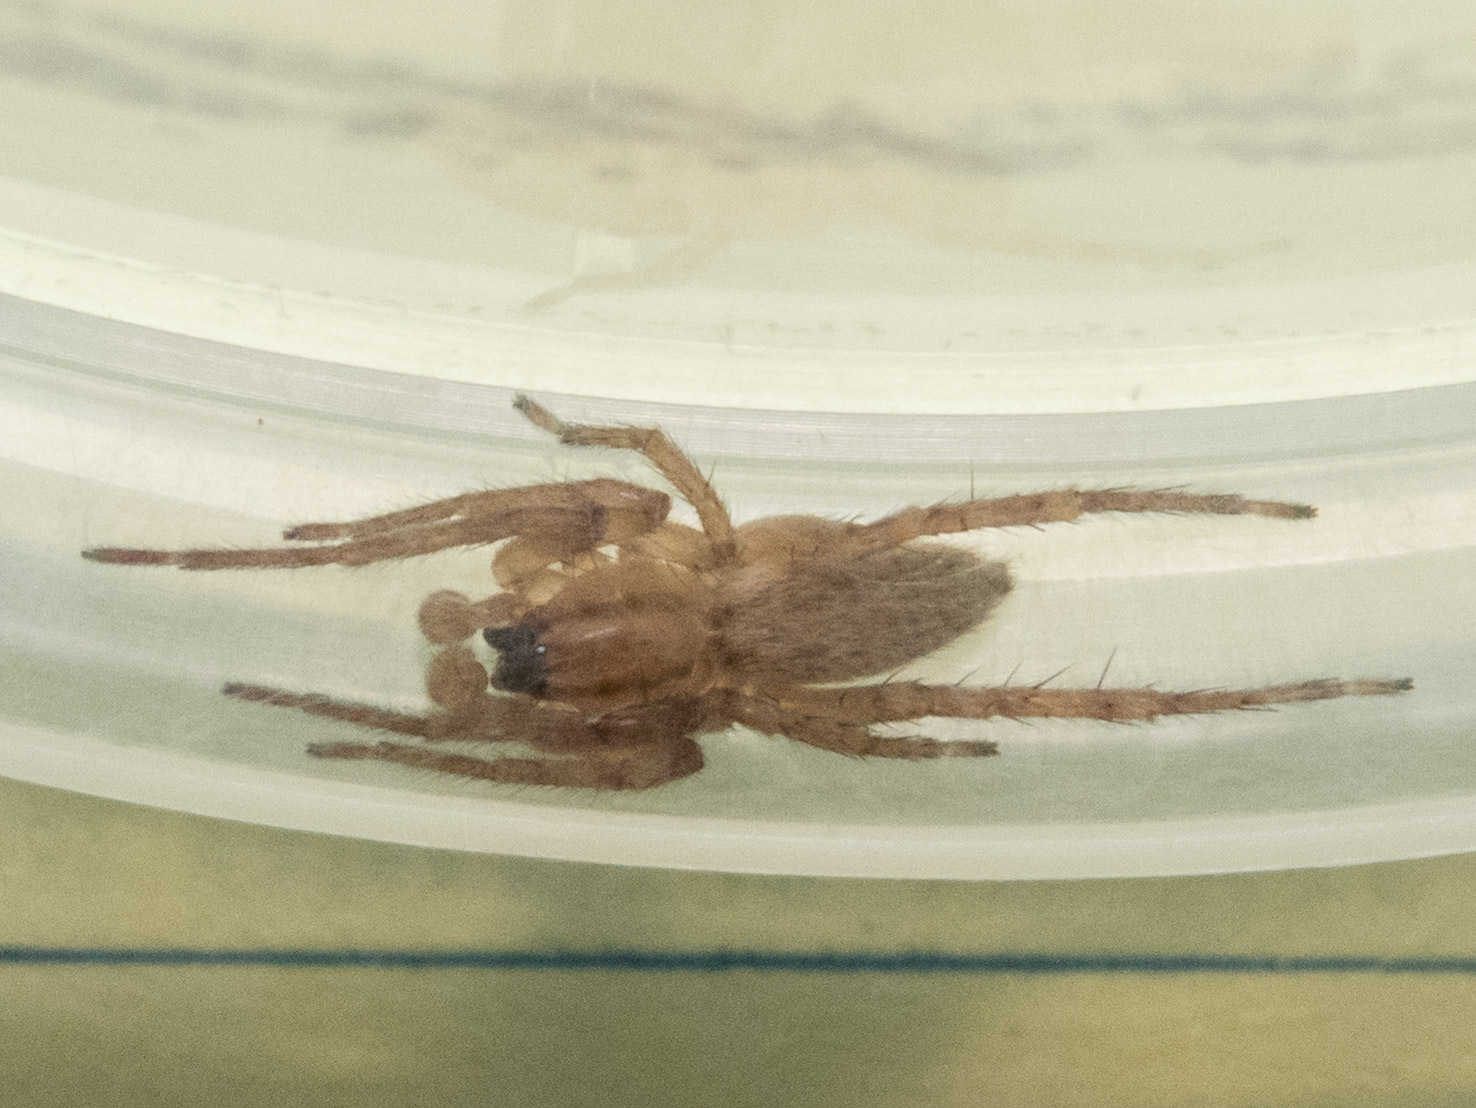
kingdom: Animalia
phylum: Arthropoda
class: Arachnida
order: Araneae
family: Anyphaenidae
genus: Hibana
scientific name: Hibana gracilis
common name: Garden ghost spider
